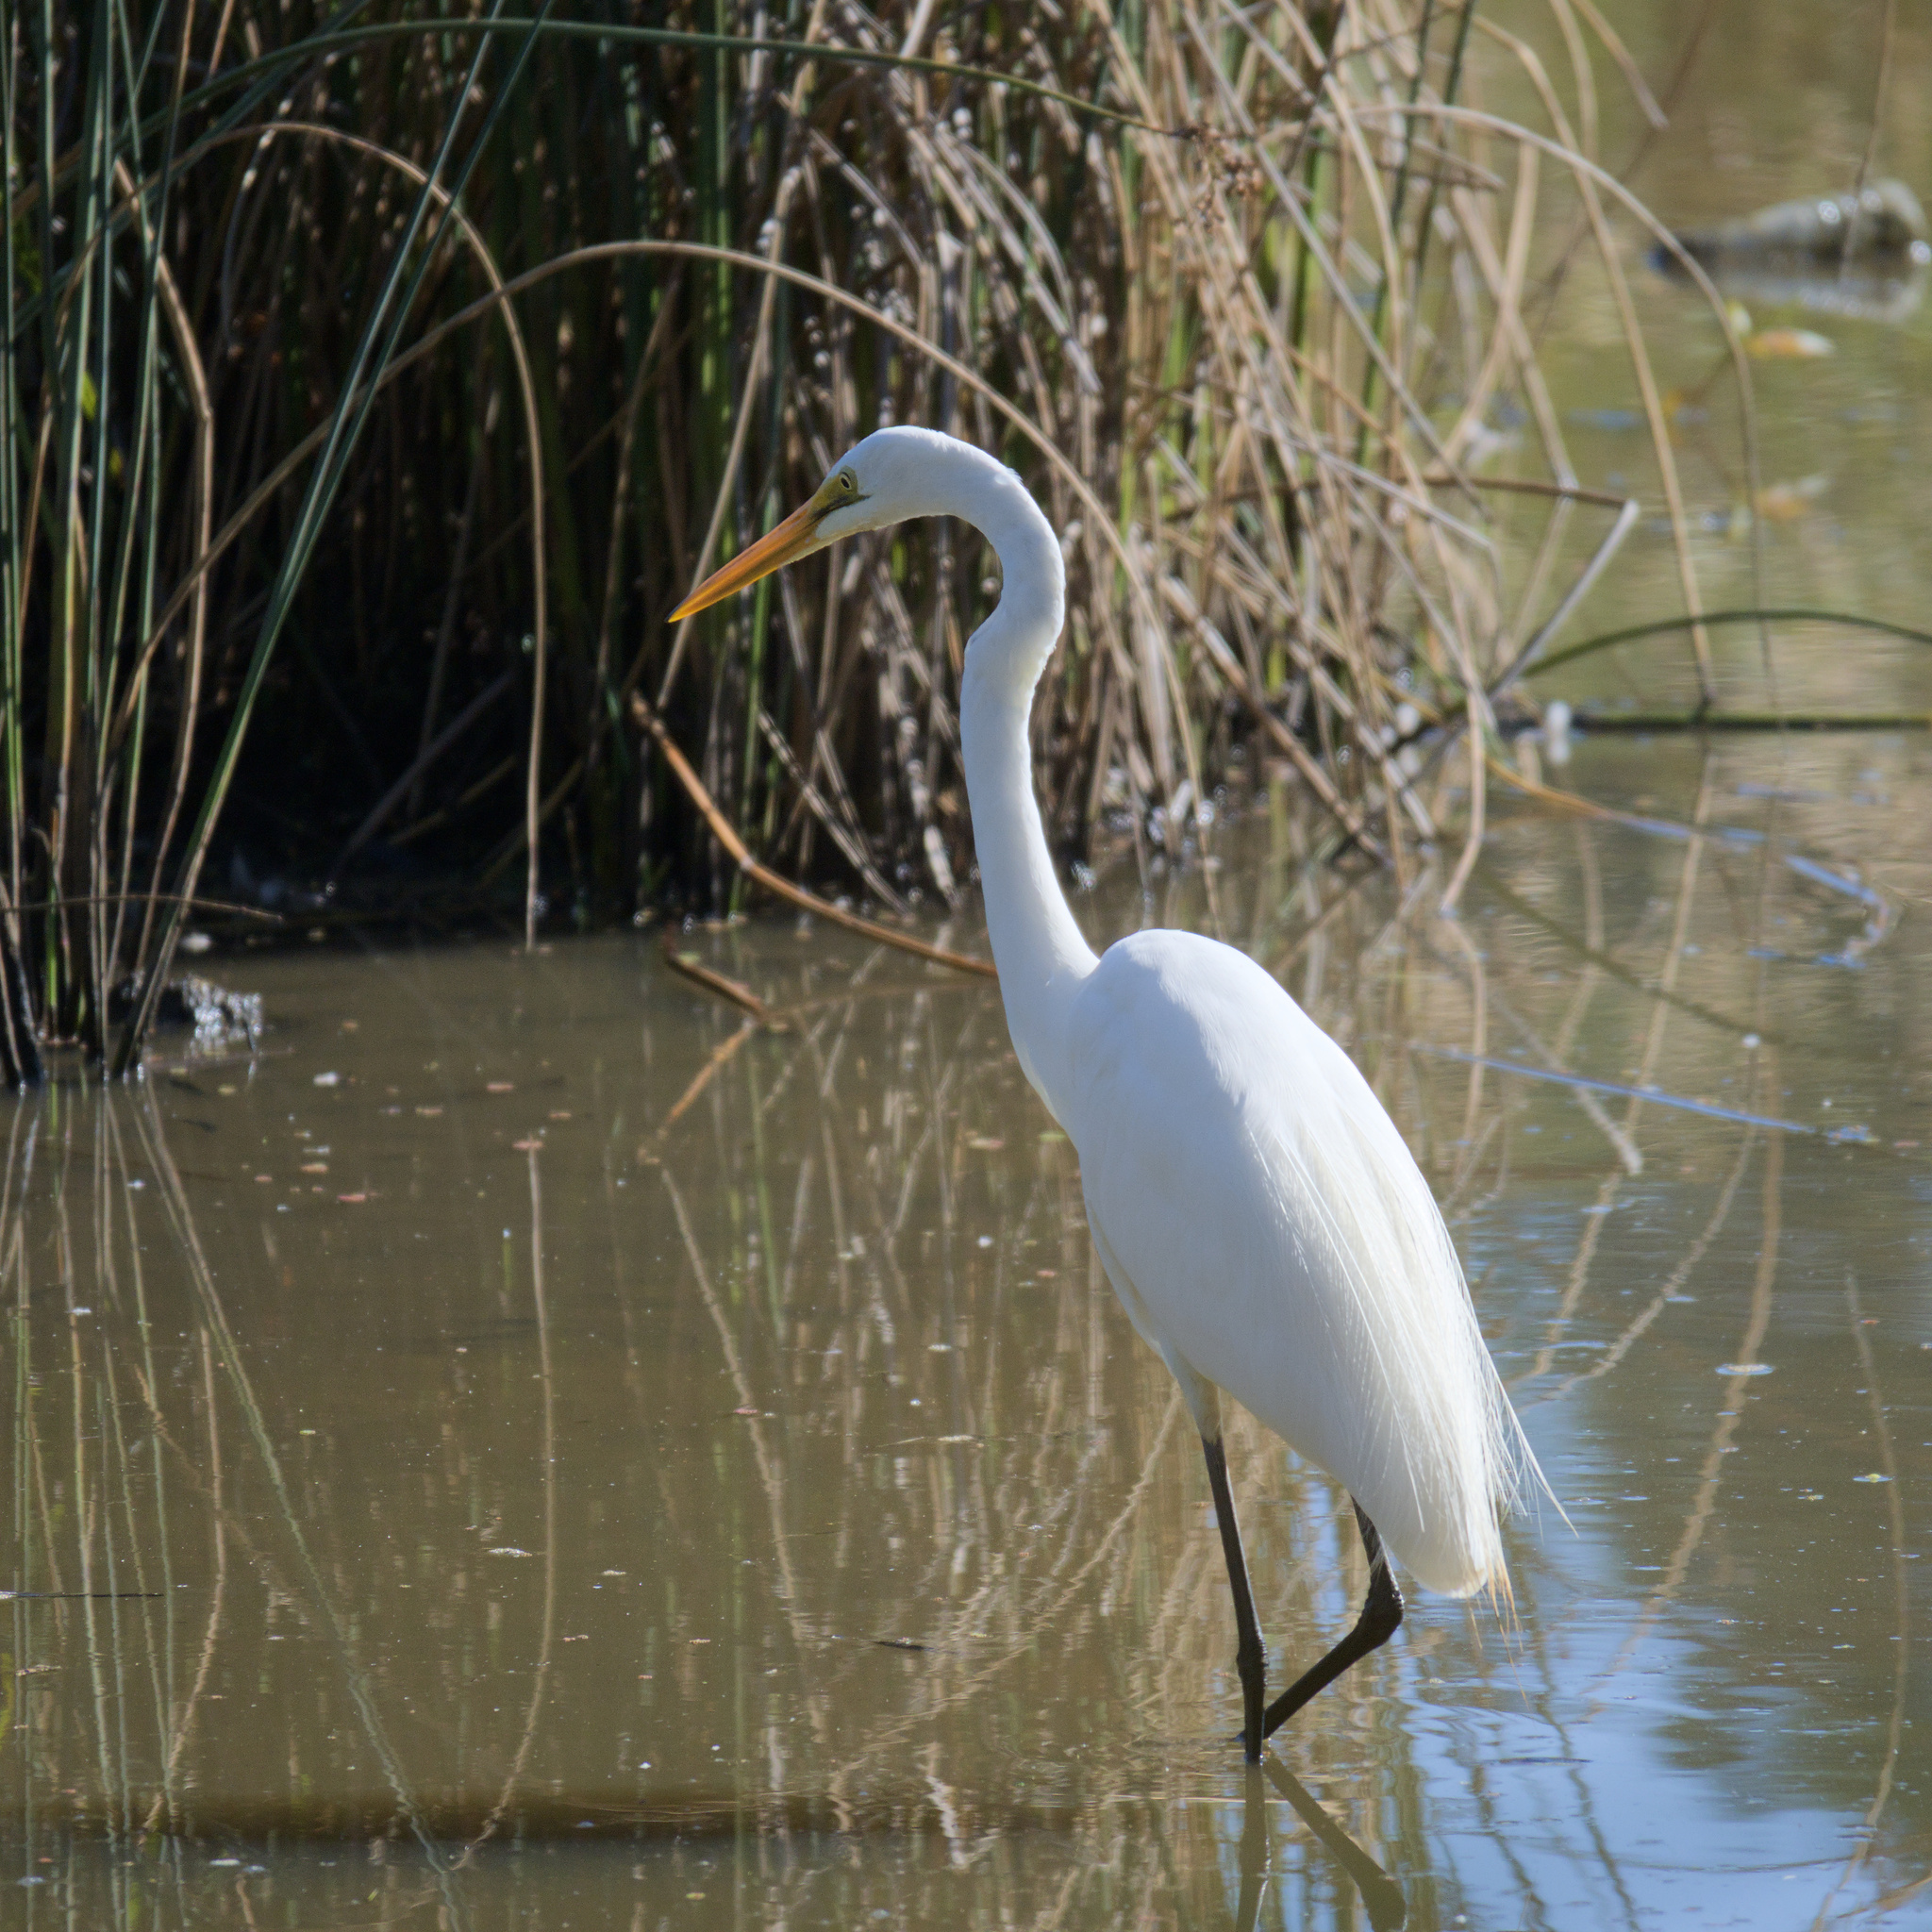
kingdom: Animalia
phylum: Chordata
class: Aves
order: Pelecaniformes
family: Ardeidae
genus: Ardea
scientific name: Ardea alba
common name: Great egret
